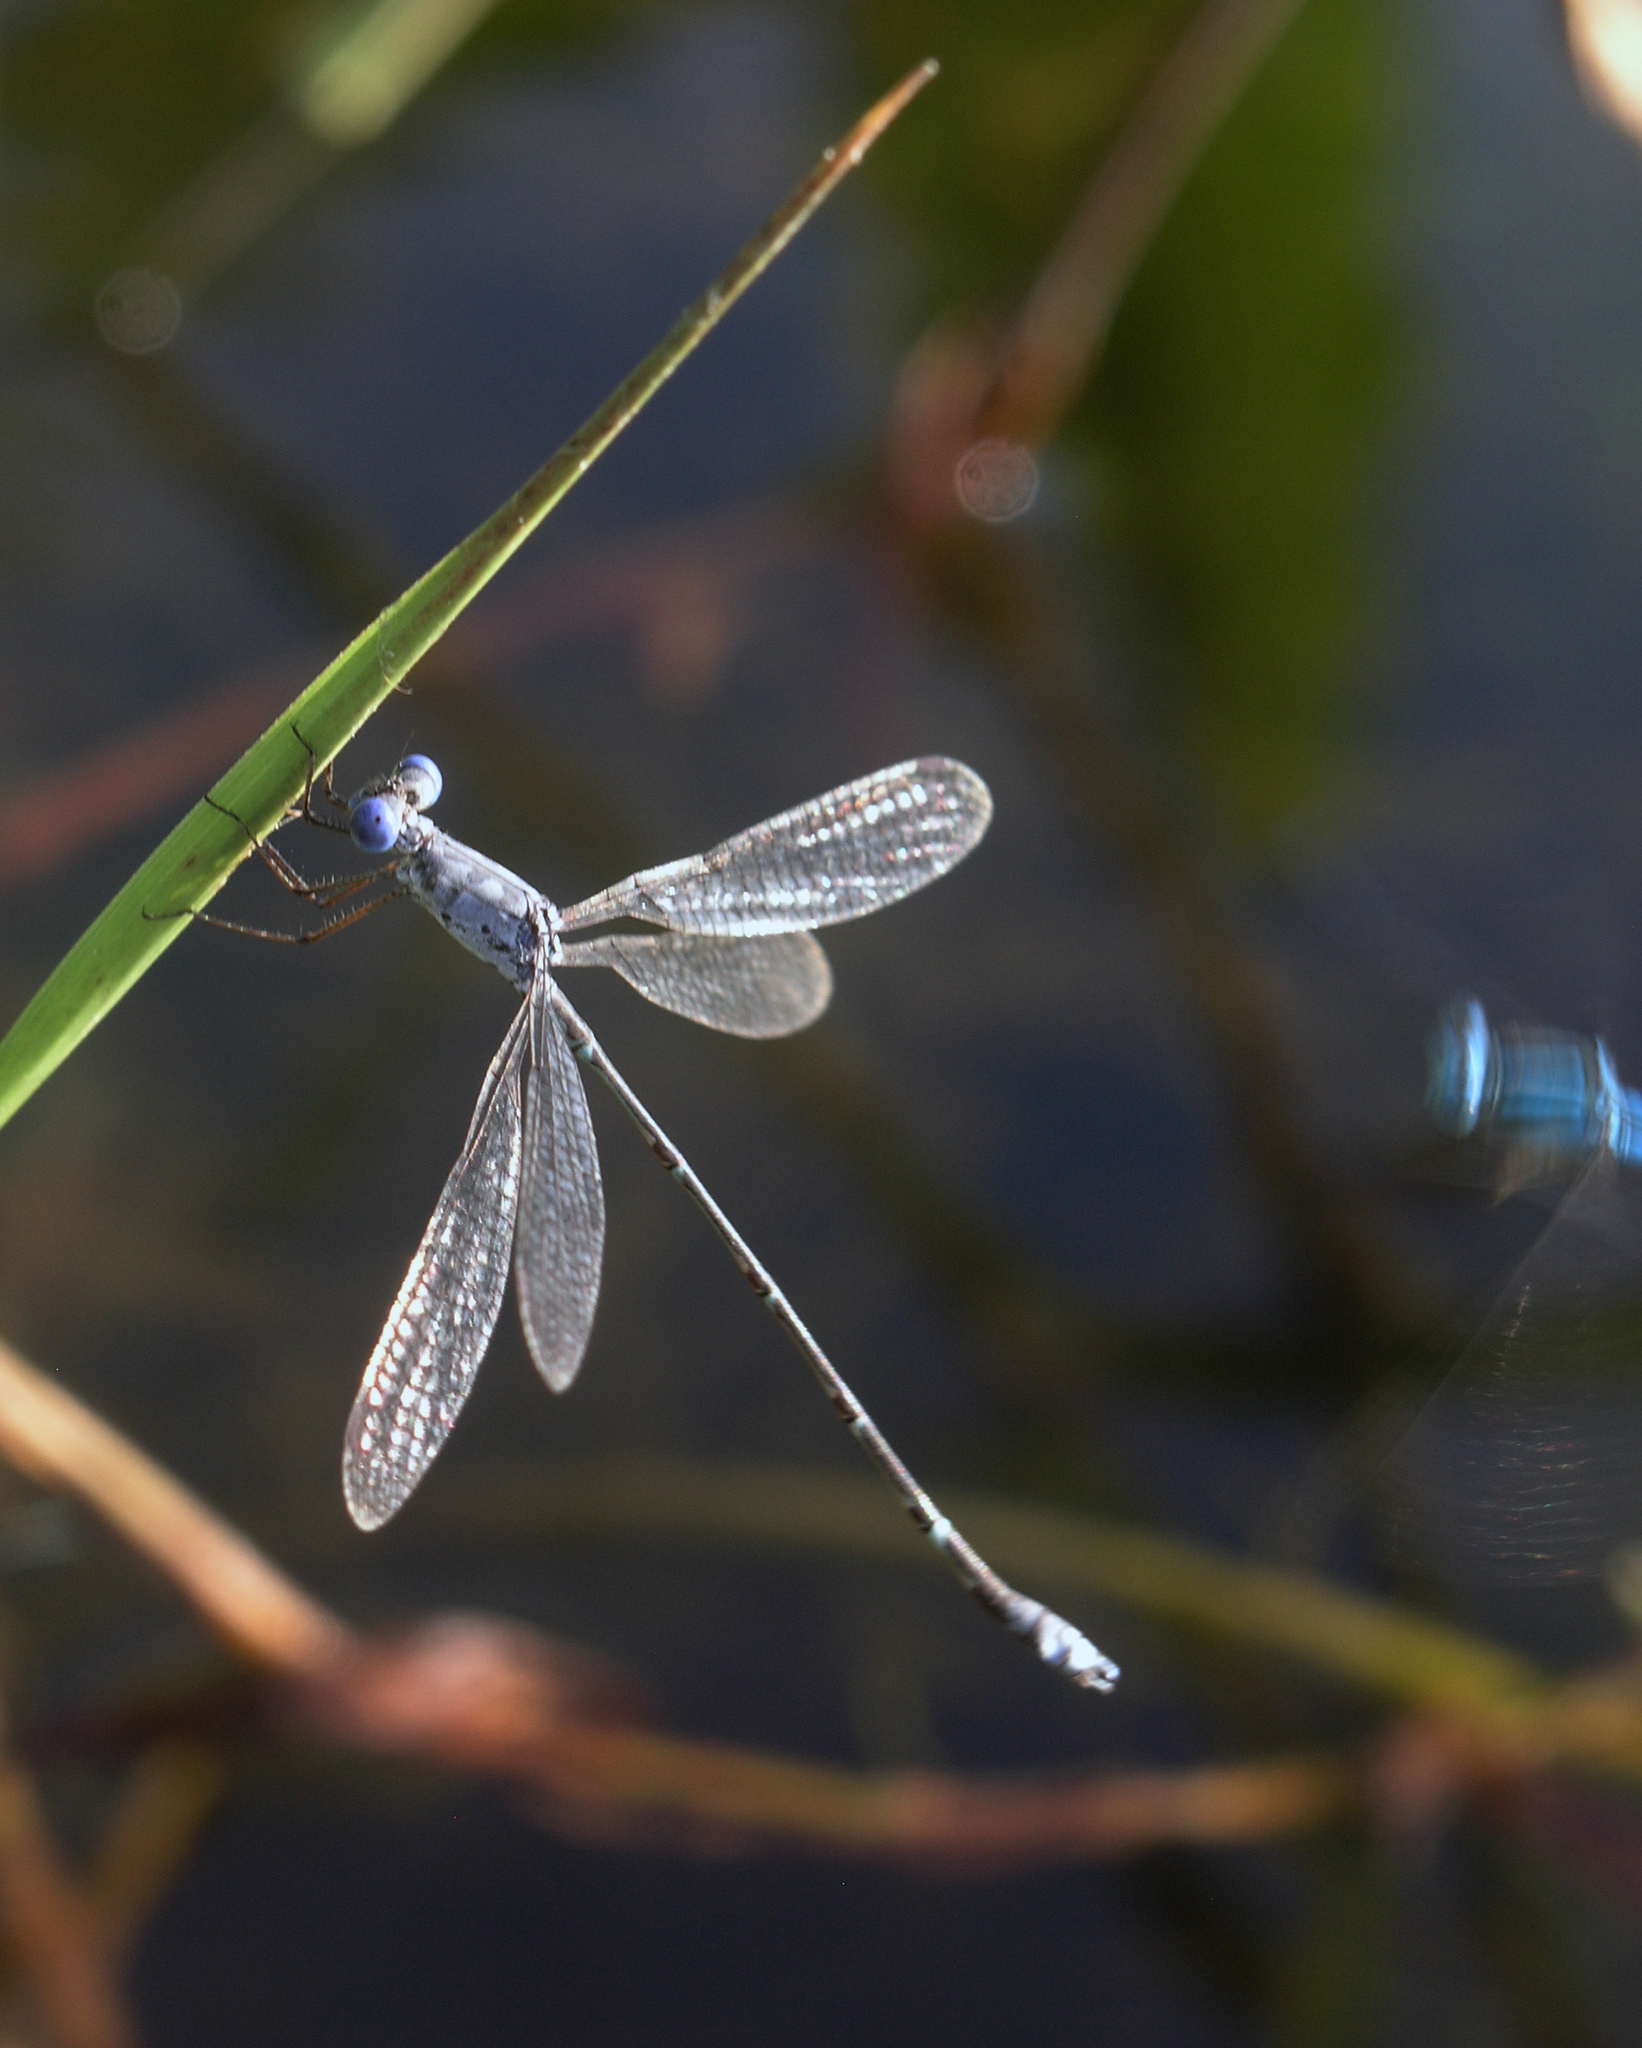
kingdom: Animalia
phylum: Arthropoda
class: Insecta
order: Odonata
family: Lestidae
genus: Lestes
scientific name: Lestes praemorsus
